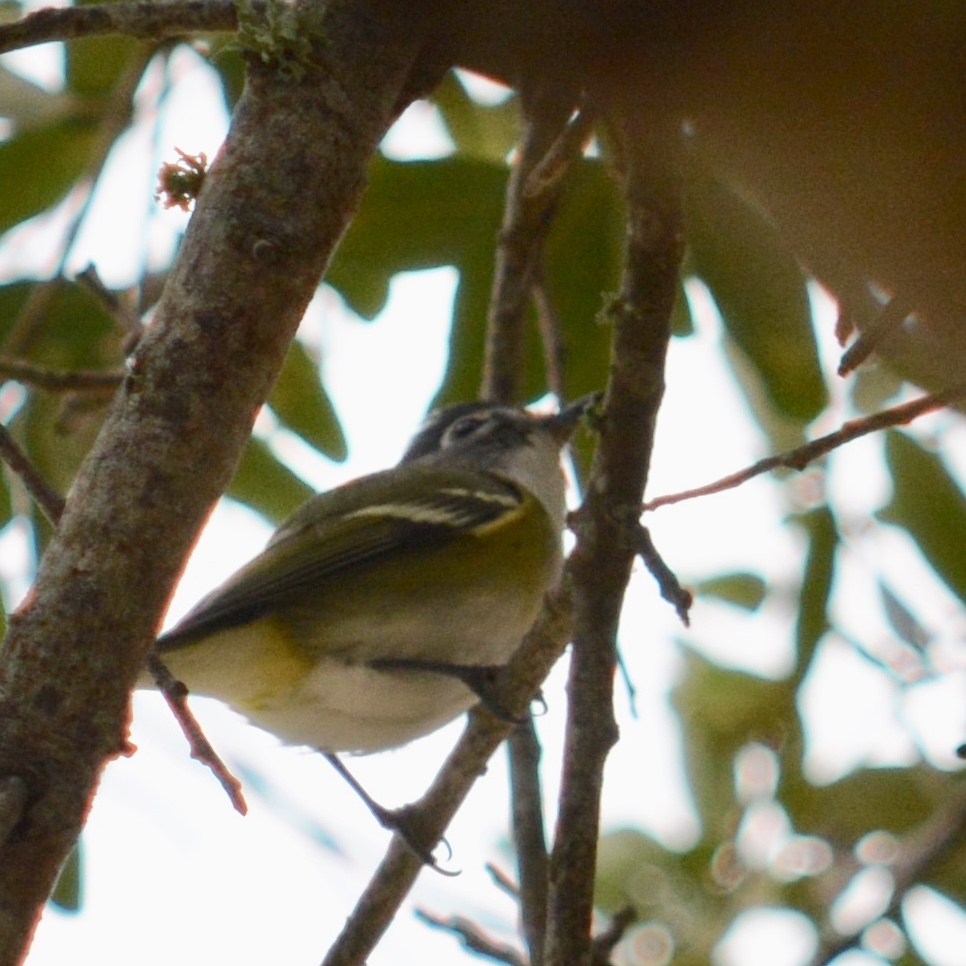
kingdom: Animalia
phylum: Chordata
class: Aves
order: Passeriformes
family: Vireonidae
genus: Vireo
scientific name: Vireo solitarius
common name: Blue-headed vireo
